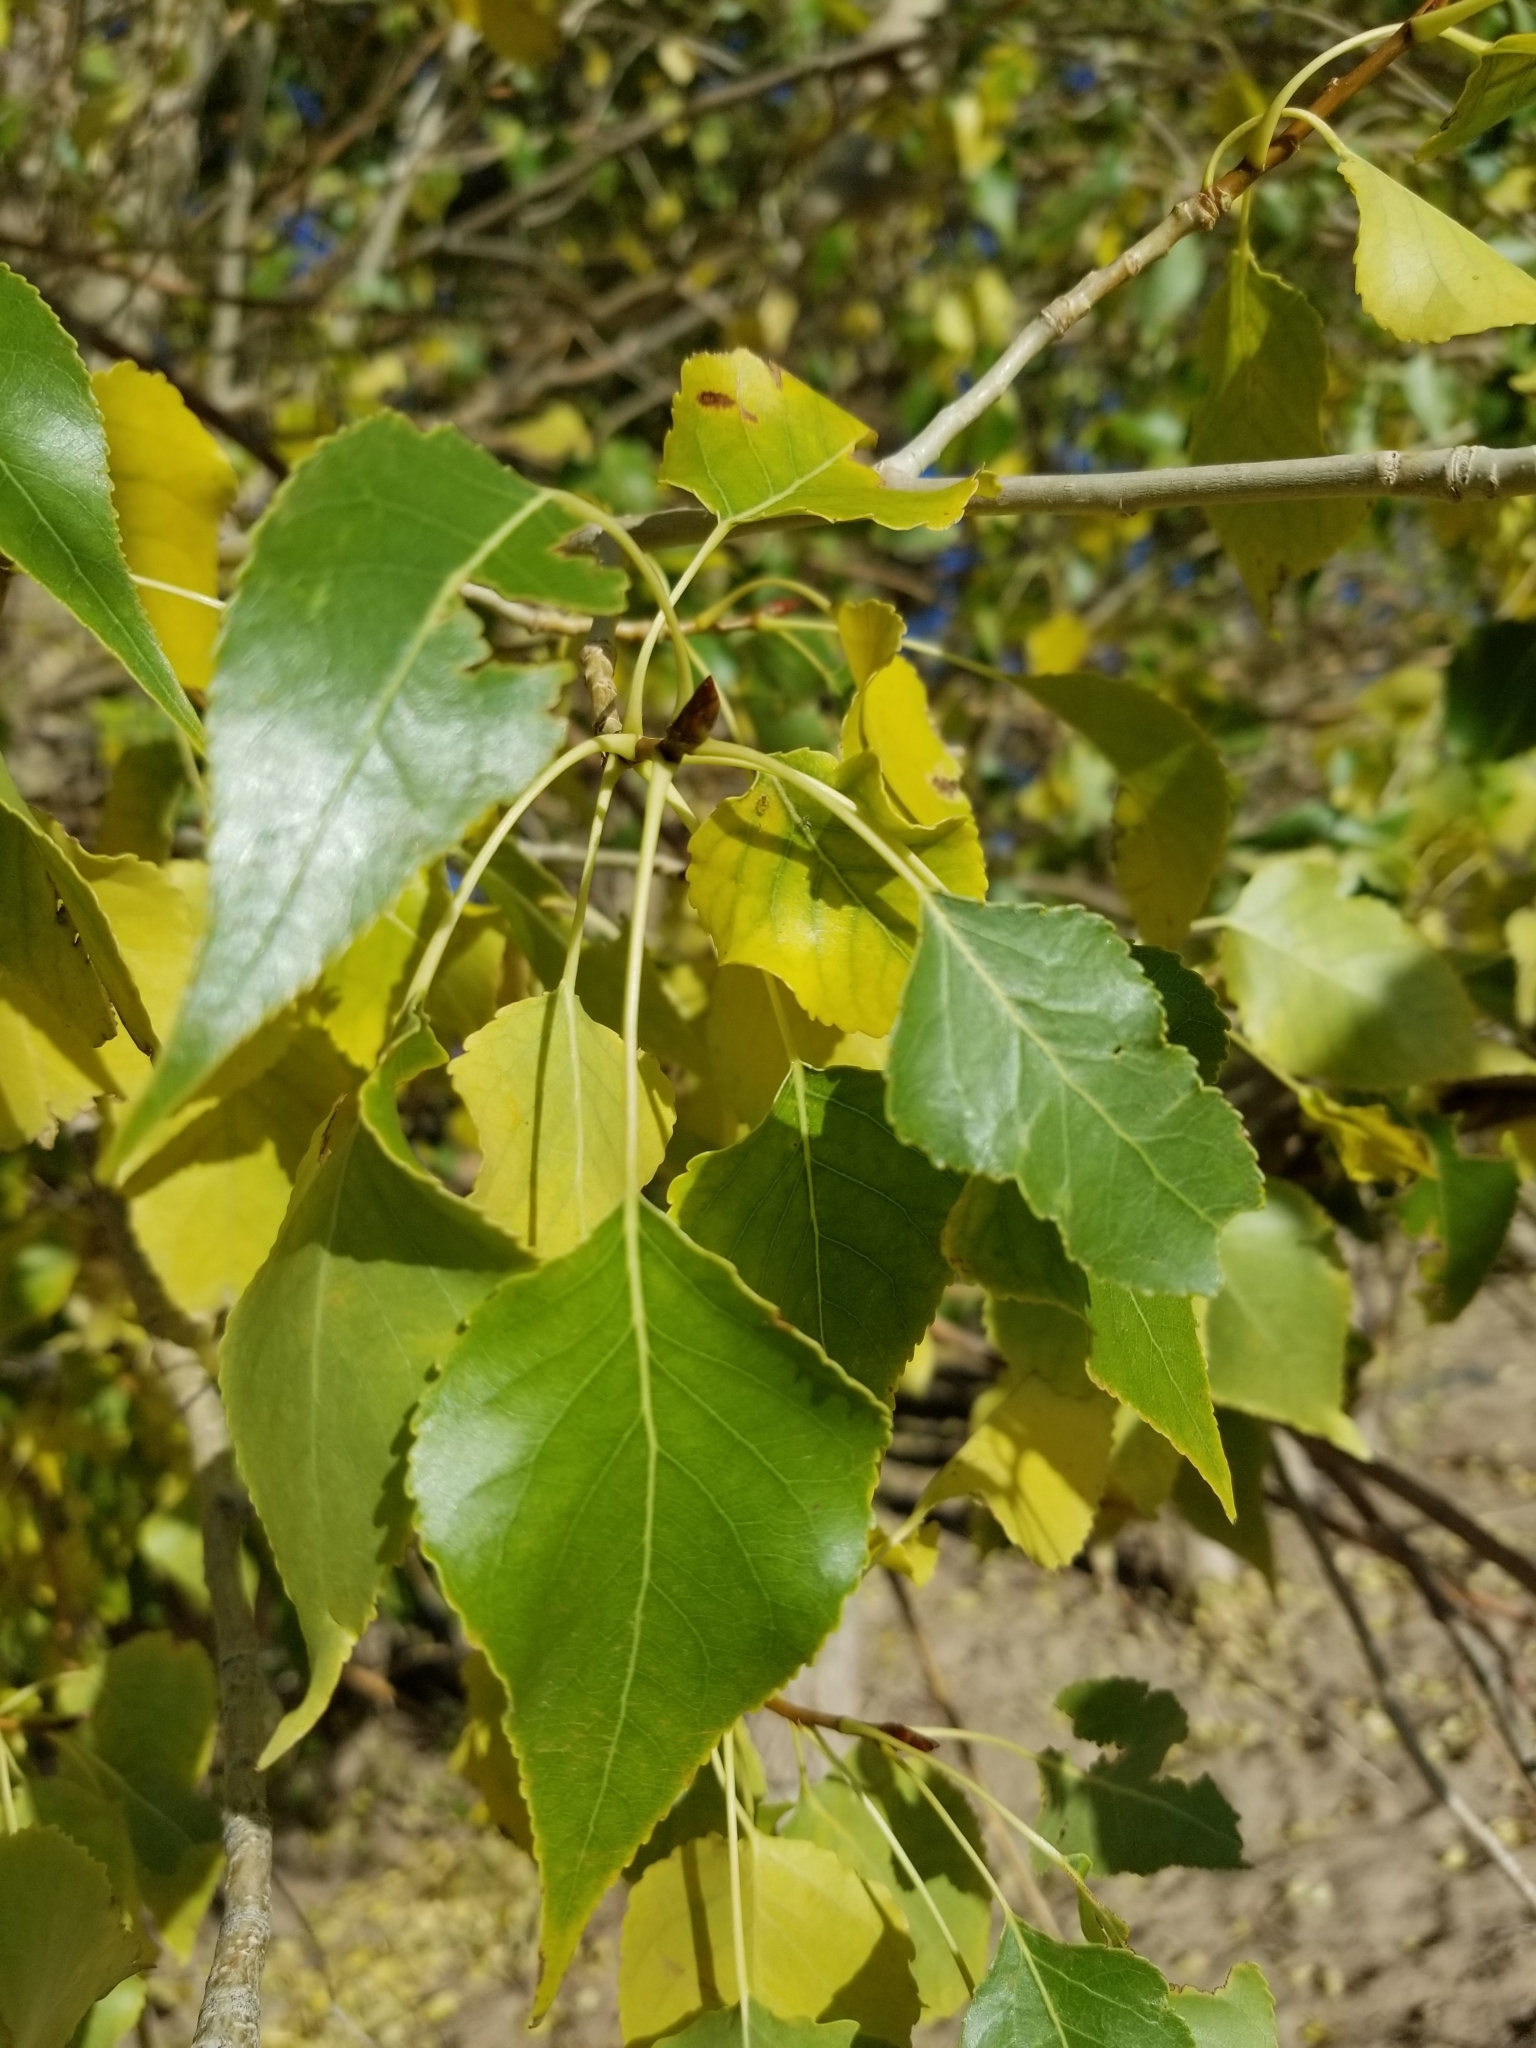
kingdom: Plantae
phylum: Tracheophyta
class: Magnoliopsida
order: Malpighiales
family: Salicaceae
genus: Populus
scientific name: Populus acuminata
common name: Lance-leaved cottonwood
